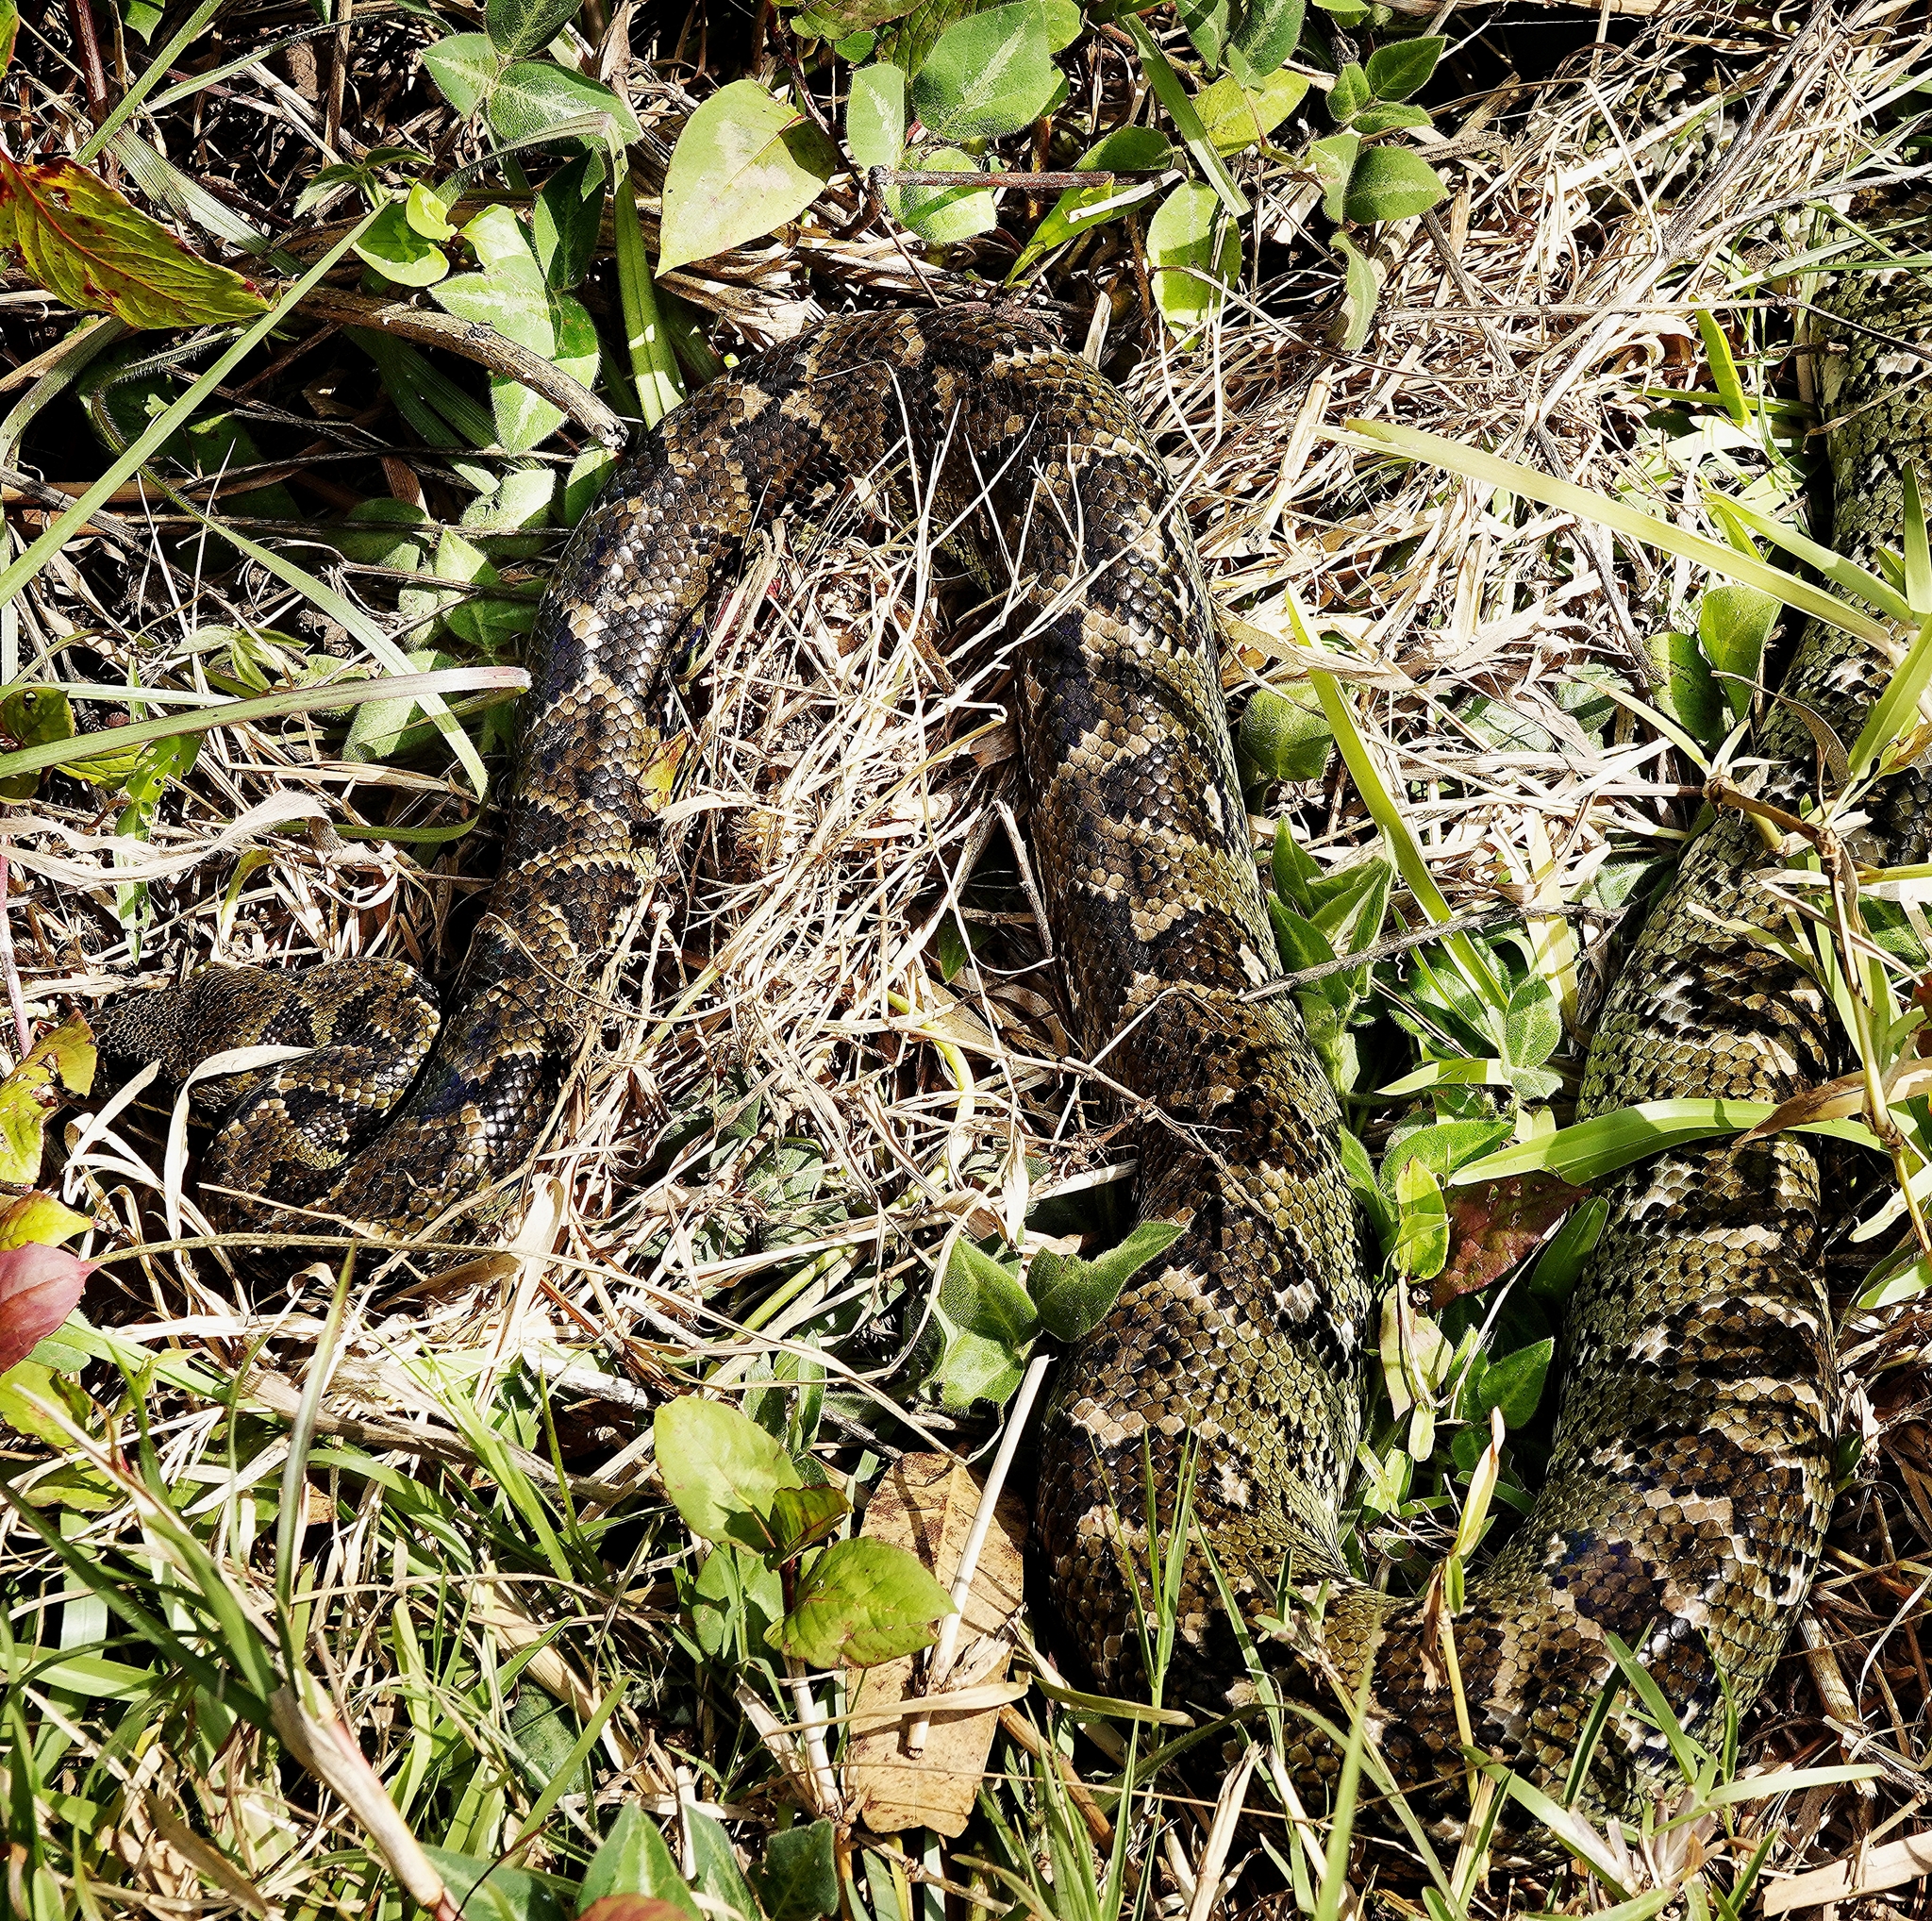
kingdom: Animalia
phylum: Chordata
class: Squamata
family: Boidae
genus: Sanzinia
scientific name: Sanzinia madagascariensis
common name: Madagascar tree boa
